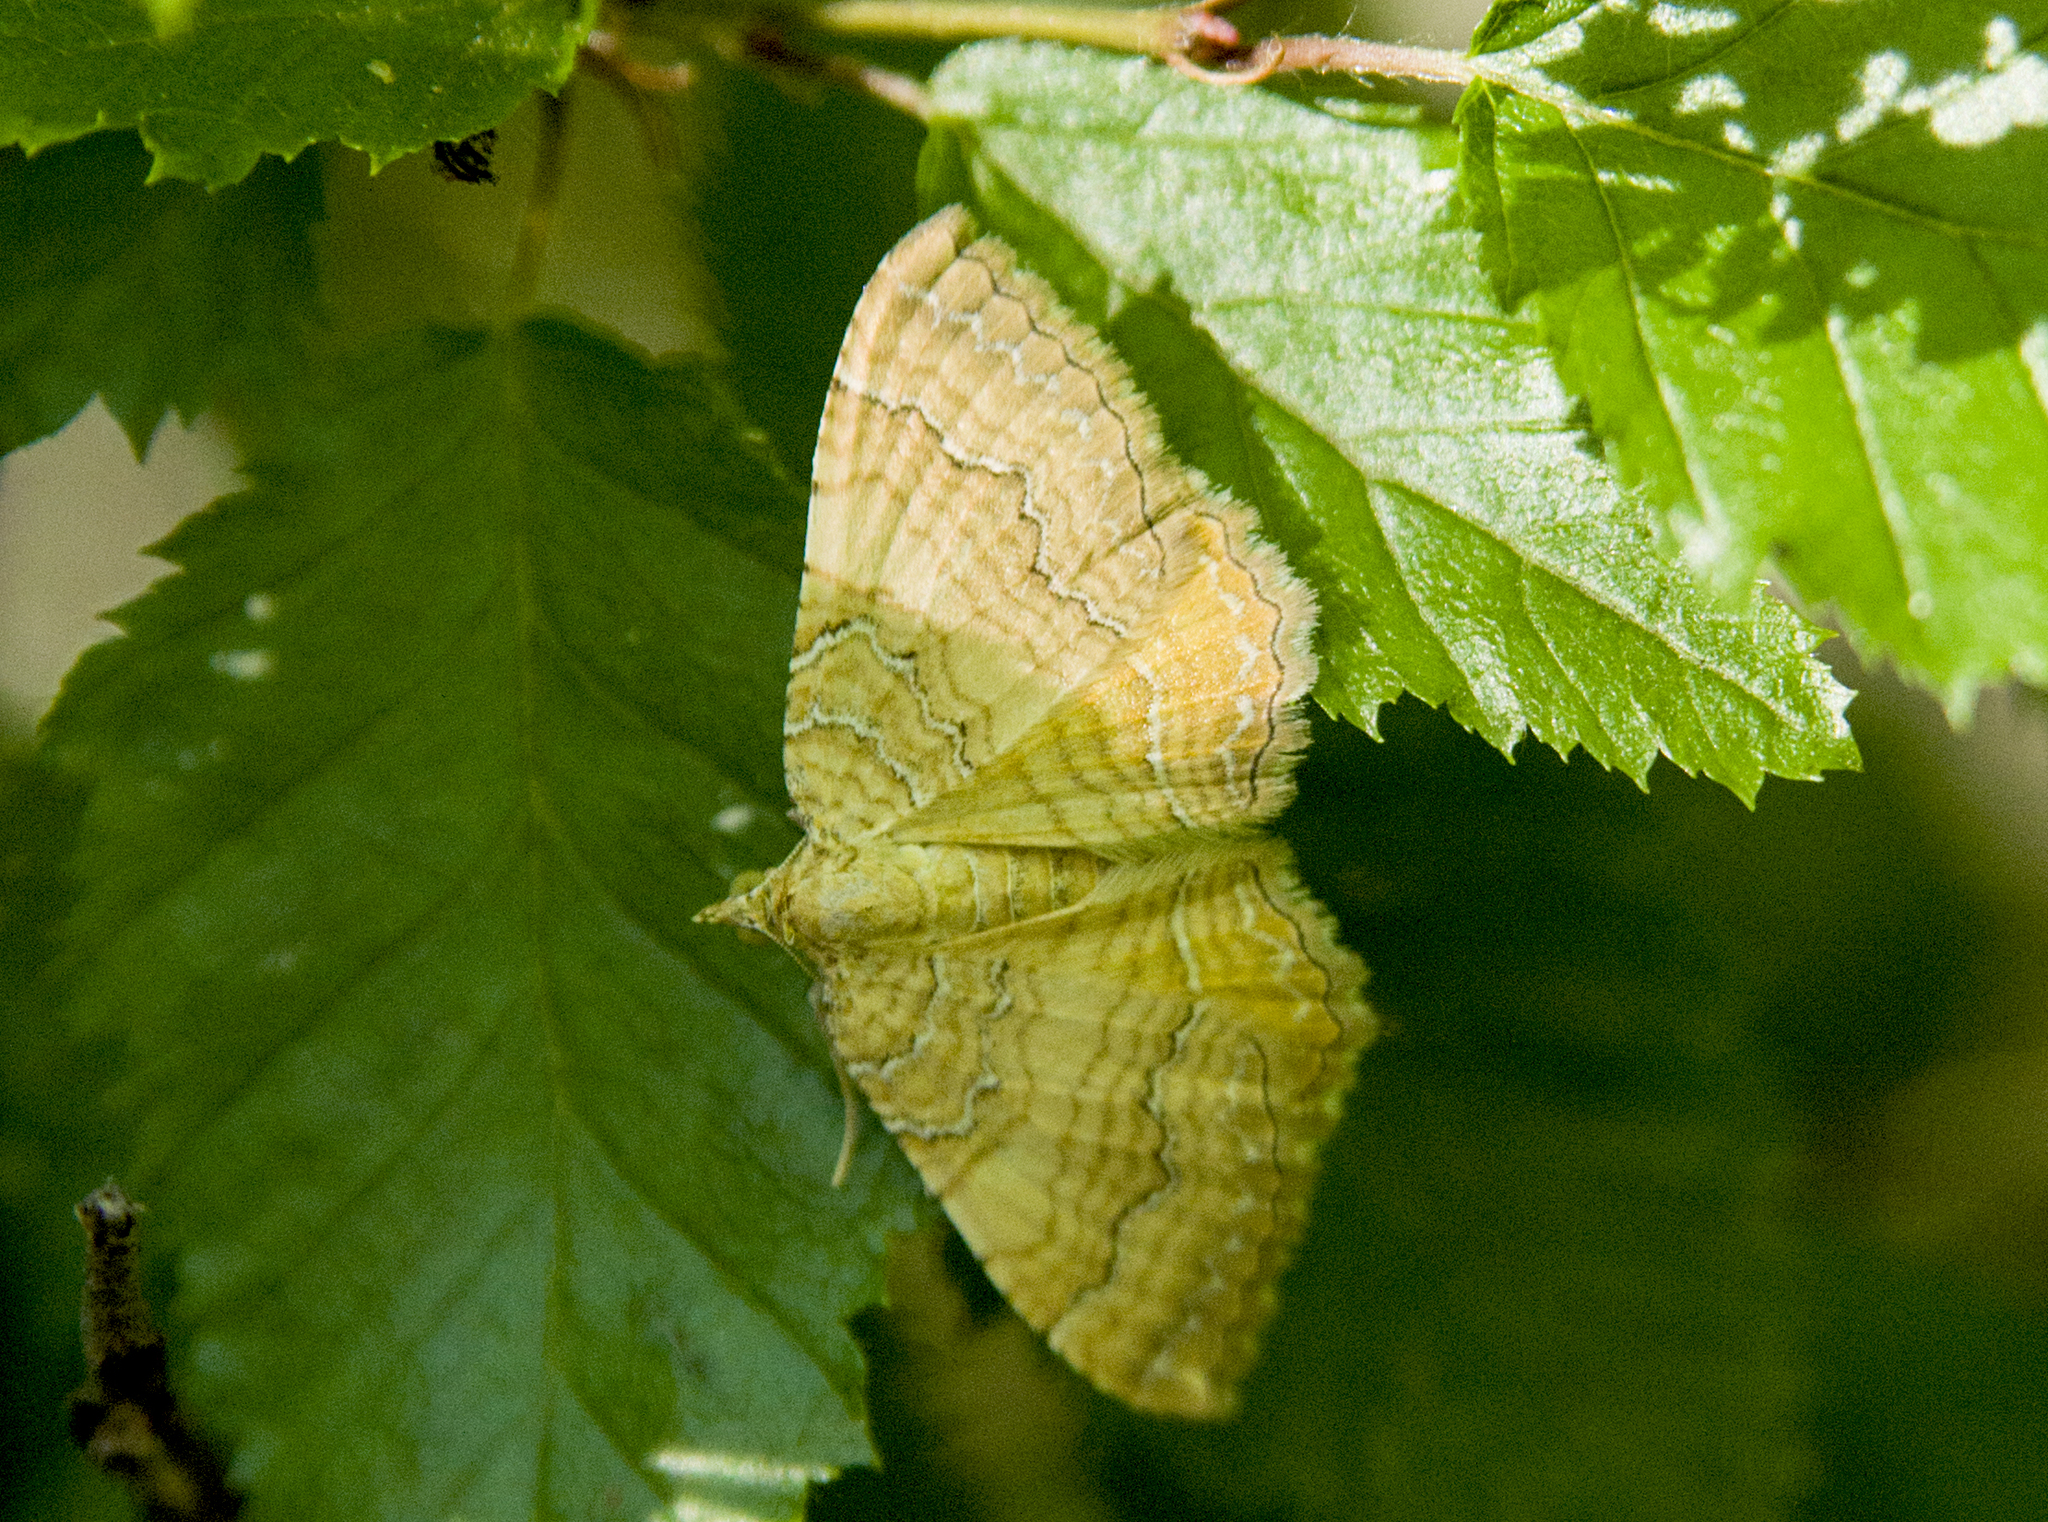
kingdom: Animalia
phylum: Arthropoda
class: Insecta
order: Lepidoptera
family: Geometridae
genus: Camptogramma
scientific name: Camptogramma bilineata
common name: Yellow shell
